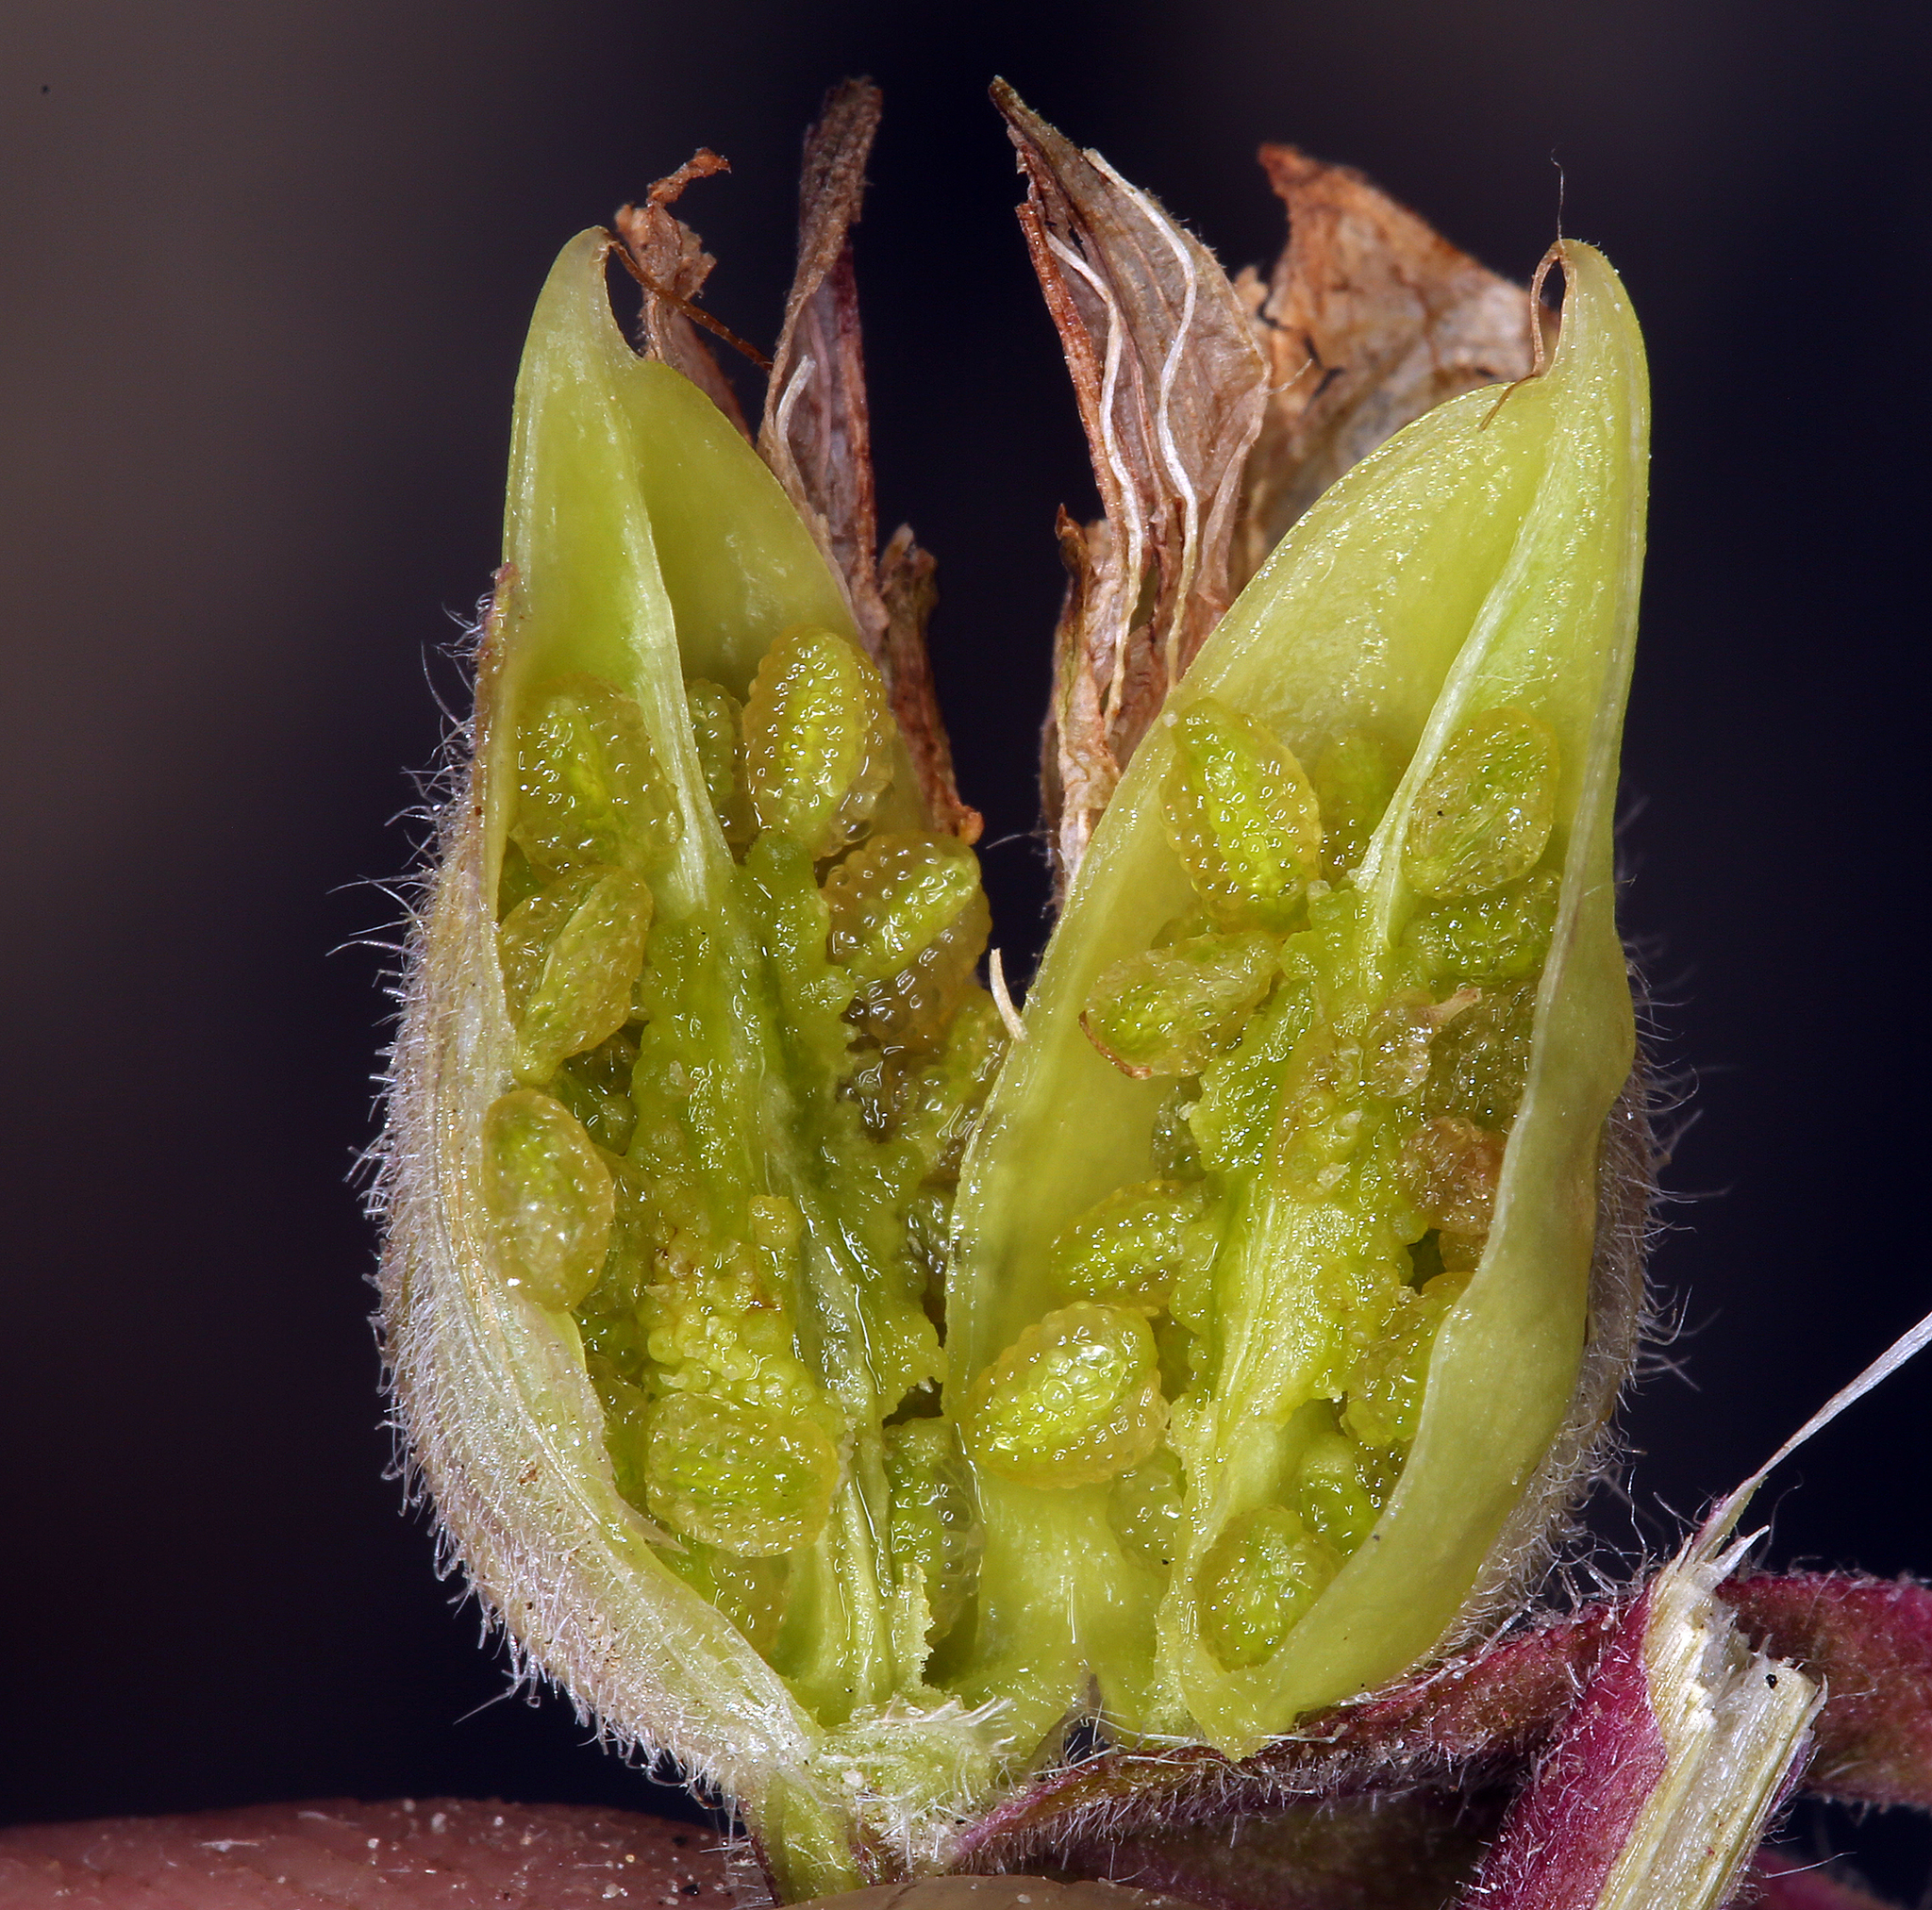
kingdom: Plantae
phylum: Tracheophyta
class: Magnoliopsida
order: Lamiales
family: Orobanchaceae
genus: Castilleja
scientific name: Castilleja chromosa
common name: Desert paintbrush
